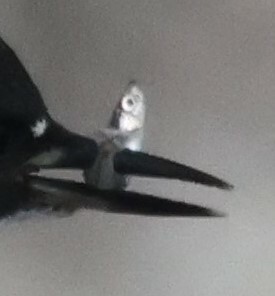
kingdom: Animalia
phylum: Chordata
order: Atheriniformes
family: Atherinopsidae
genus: Menidia
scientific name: Menidia menidia
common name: Atlantic silverside
